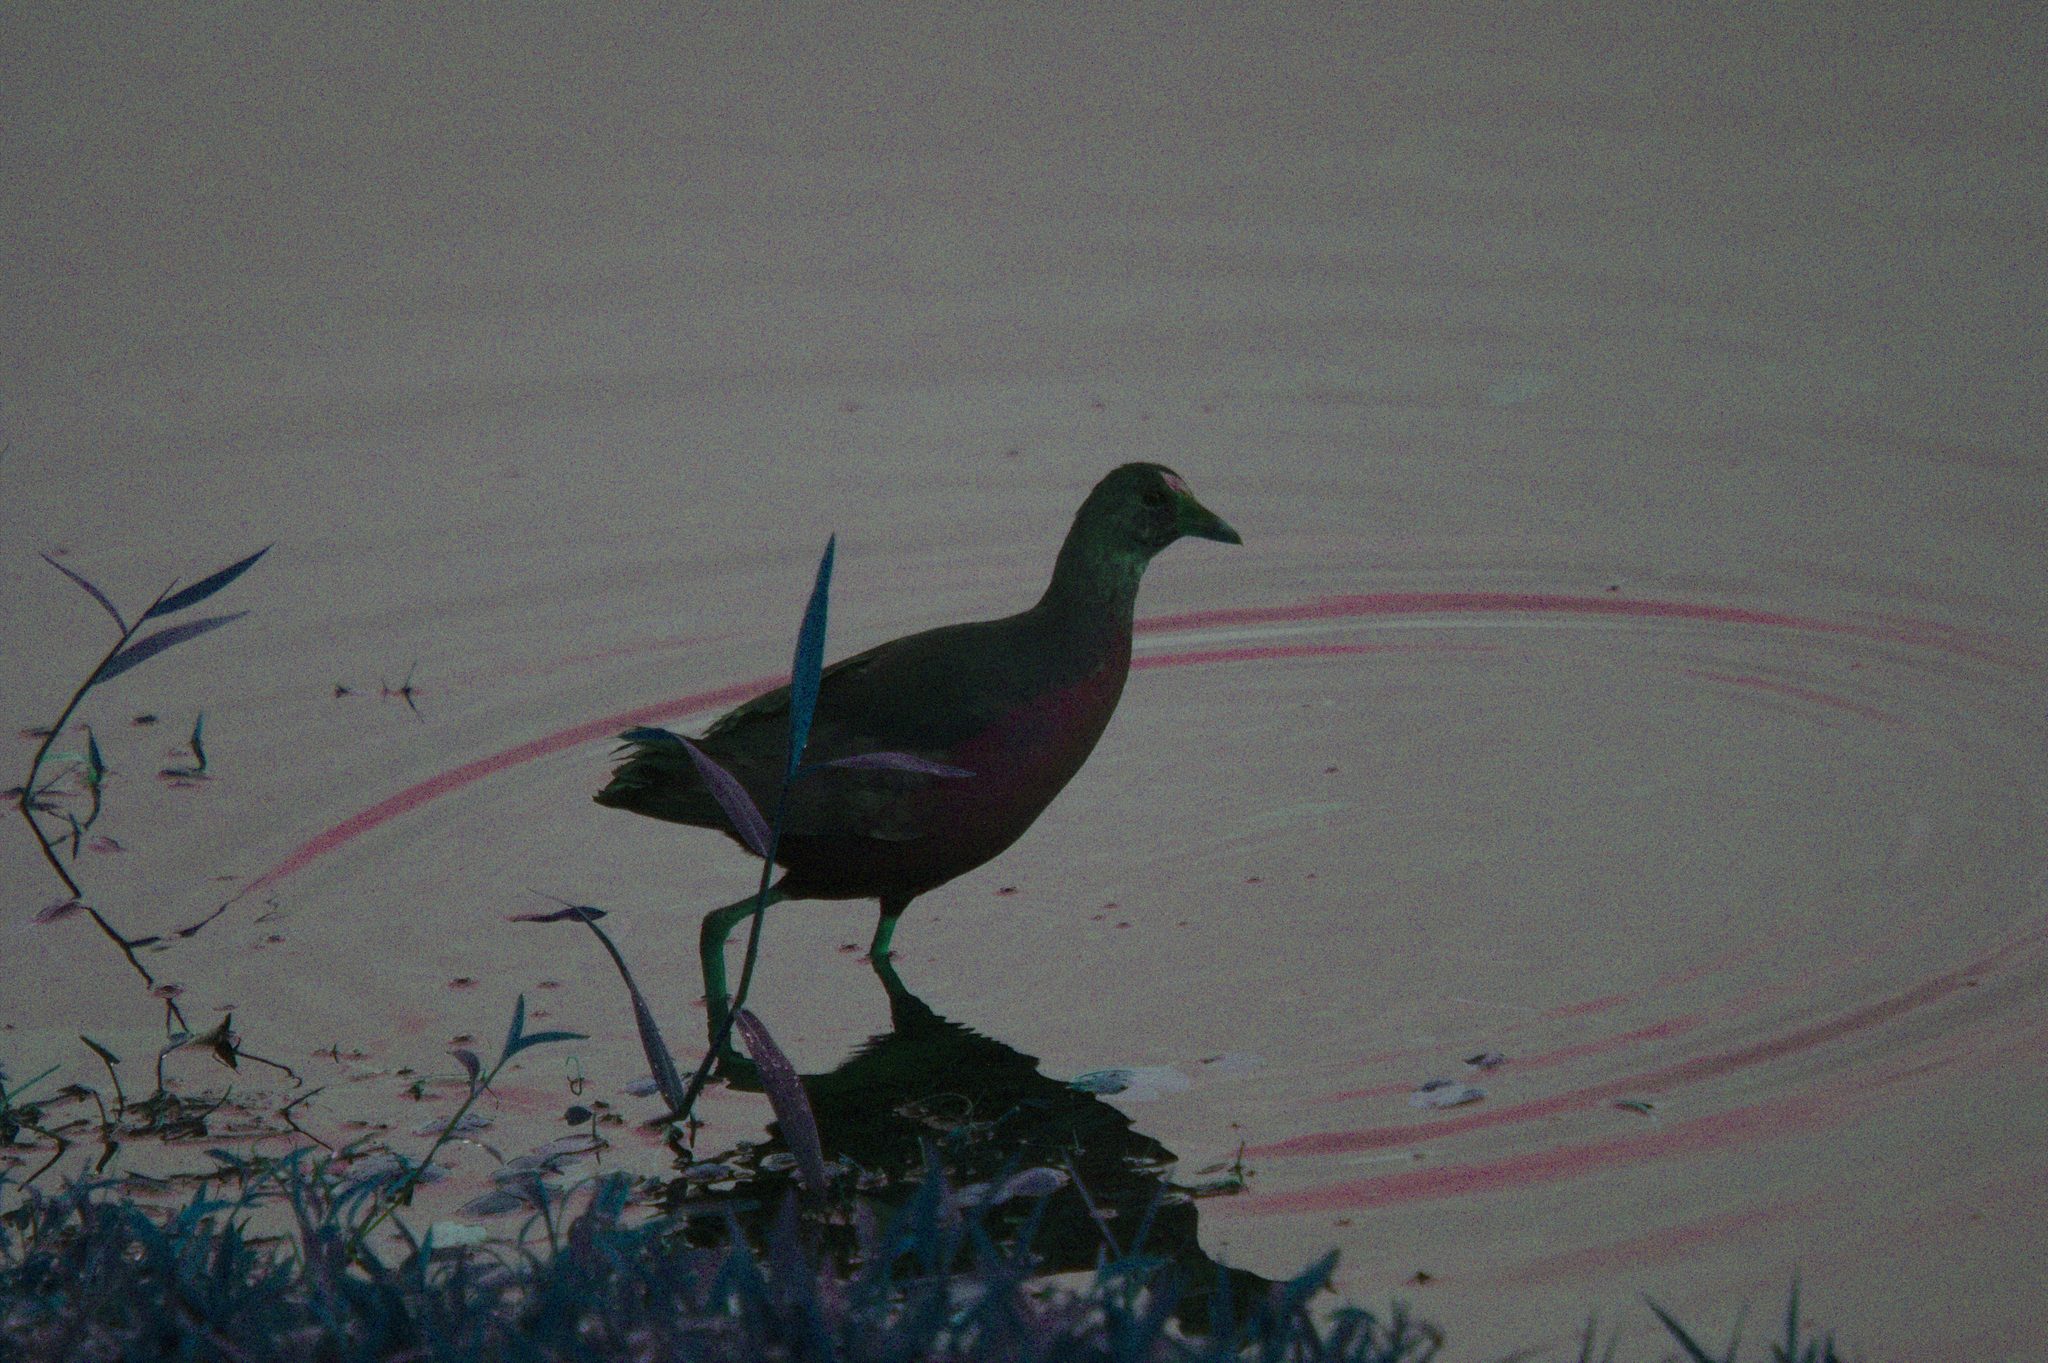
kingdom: Animalia
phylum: Chordata
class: Aves
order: Gruiformes
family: Rallidae
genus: Porphyrio
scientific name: Porphyrio martinica
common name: Purple gallinule
